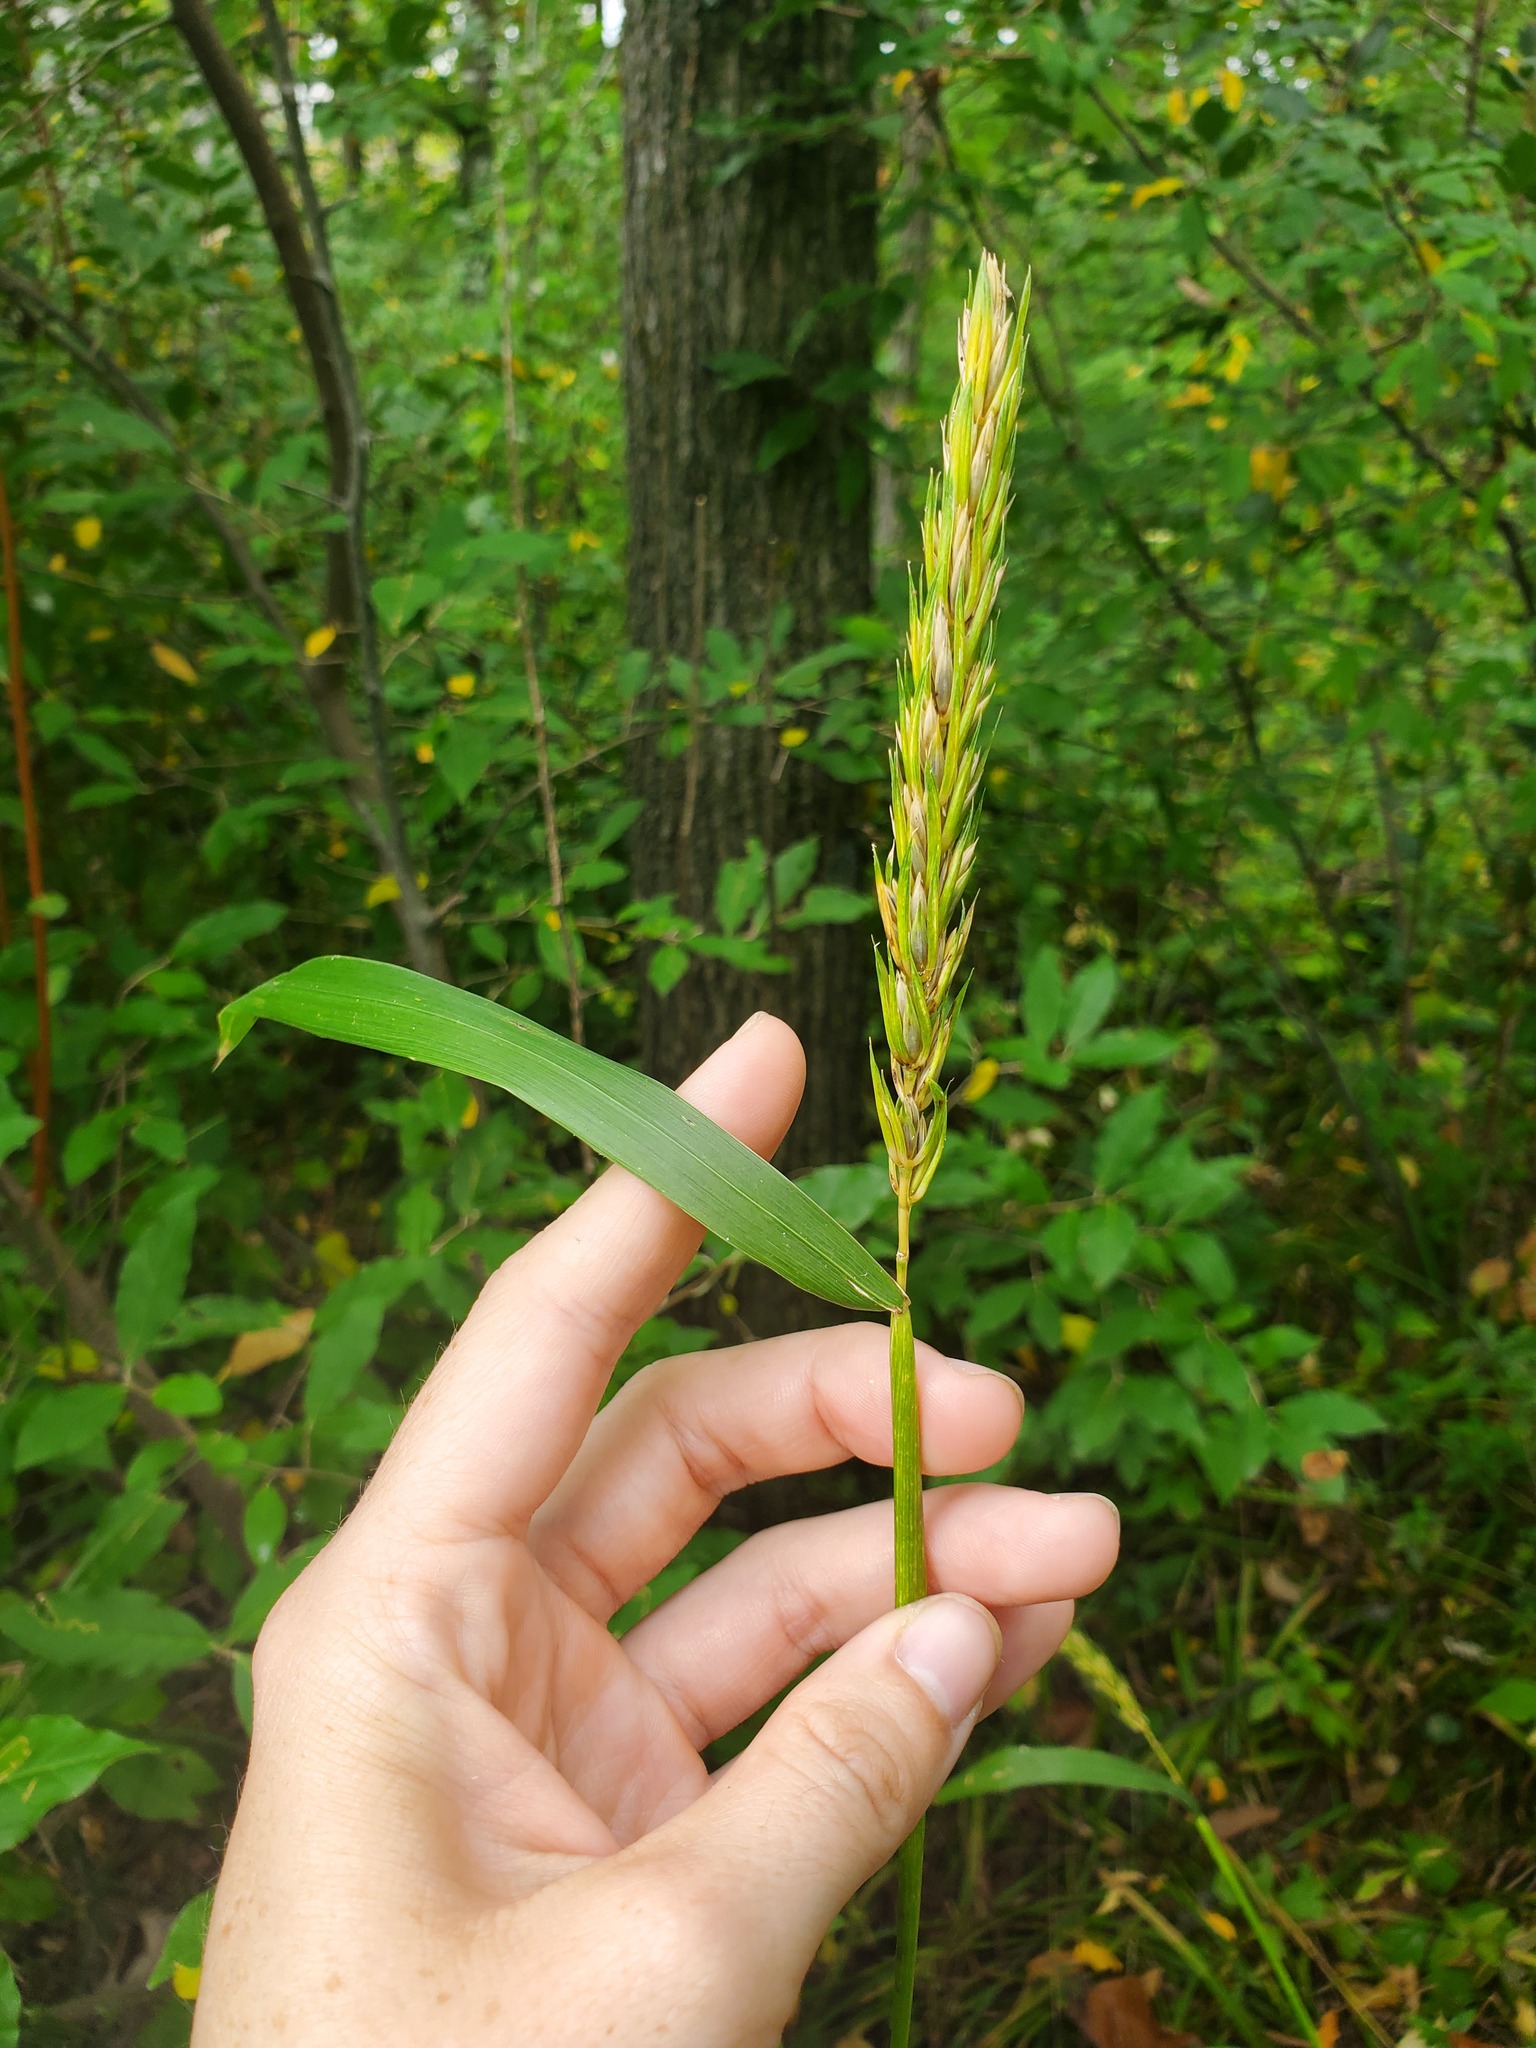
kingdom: Plantae
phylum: Tracheophyta
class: Liliopsida
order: Poales
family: Poaceae
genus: Elymus
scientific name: Elymus virginicus
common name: Common eastern wildrye
